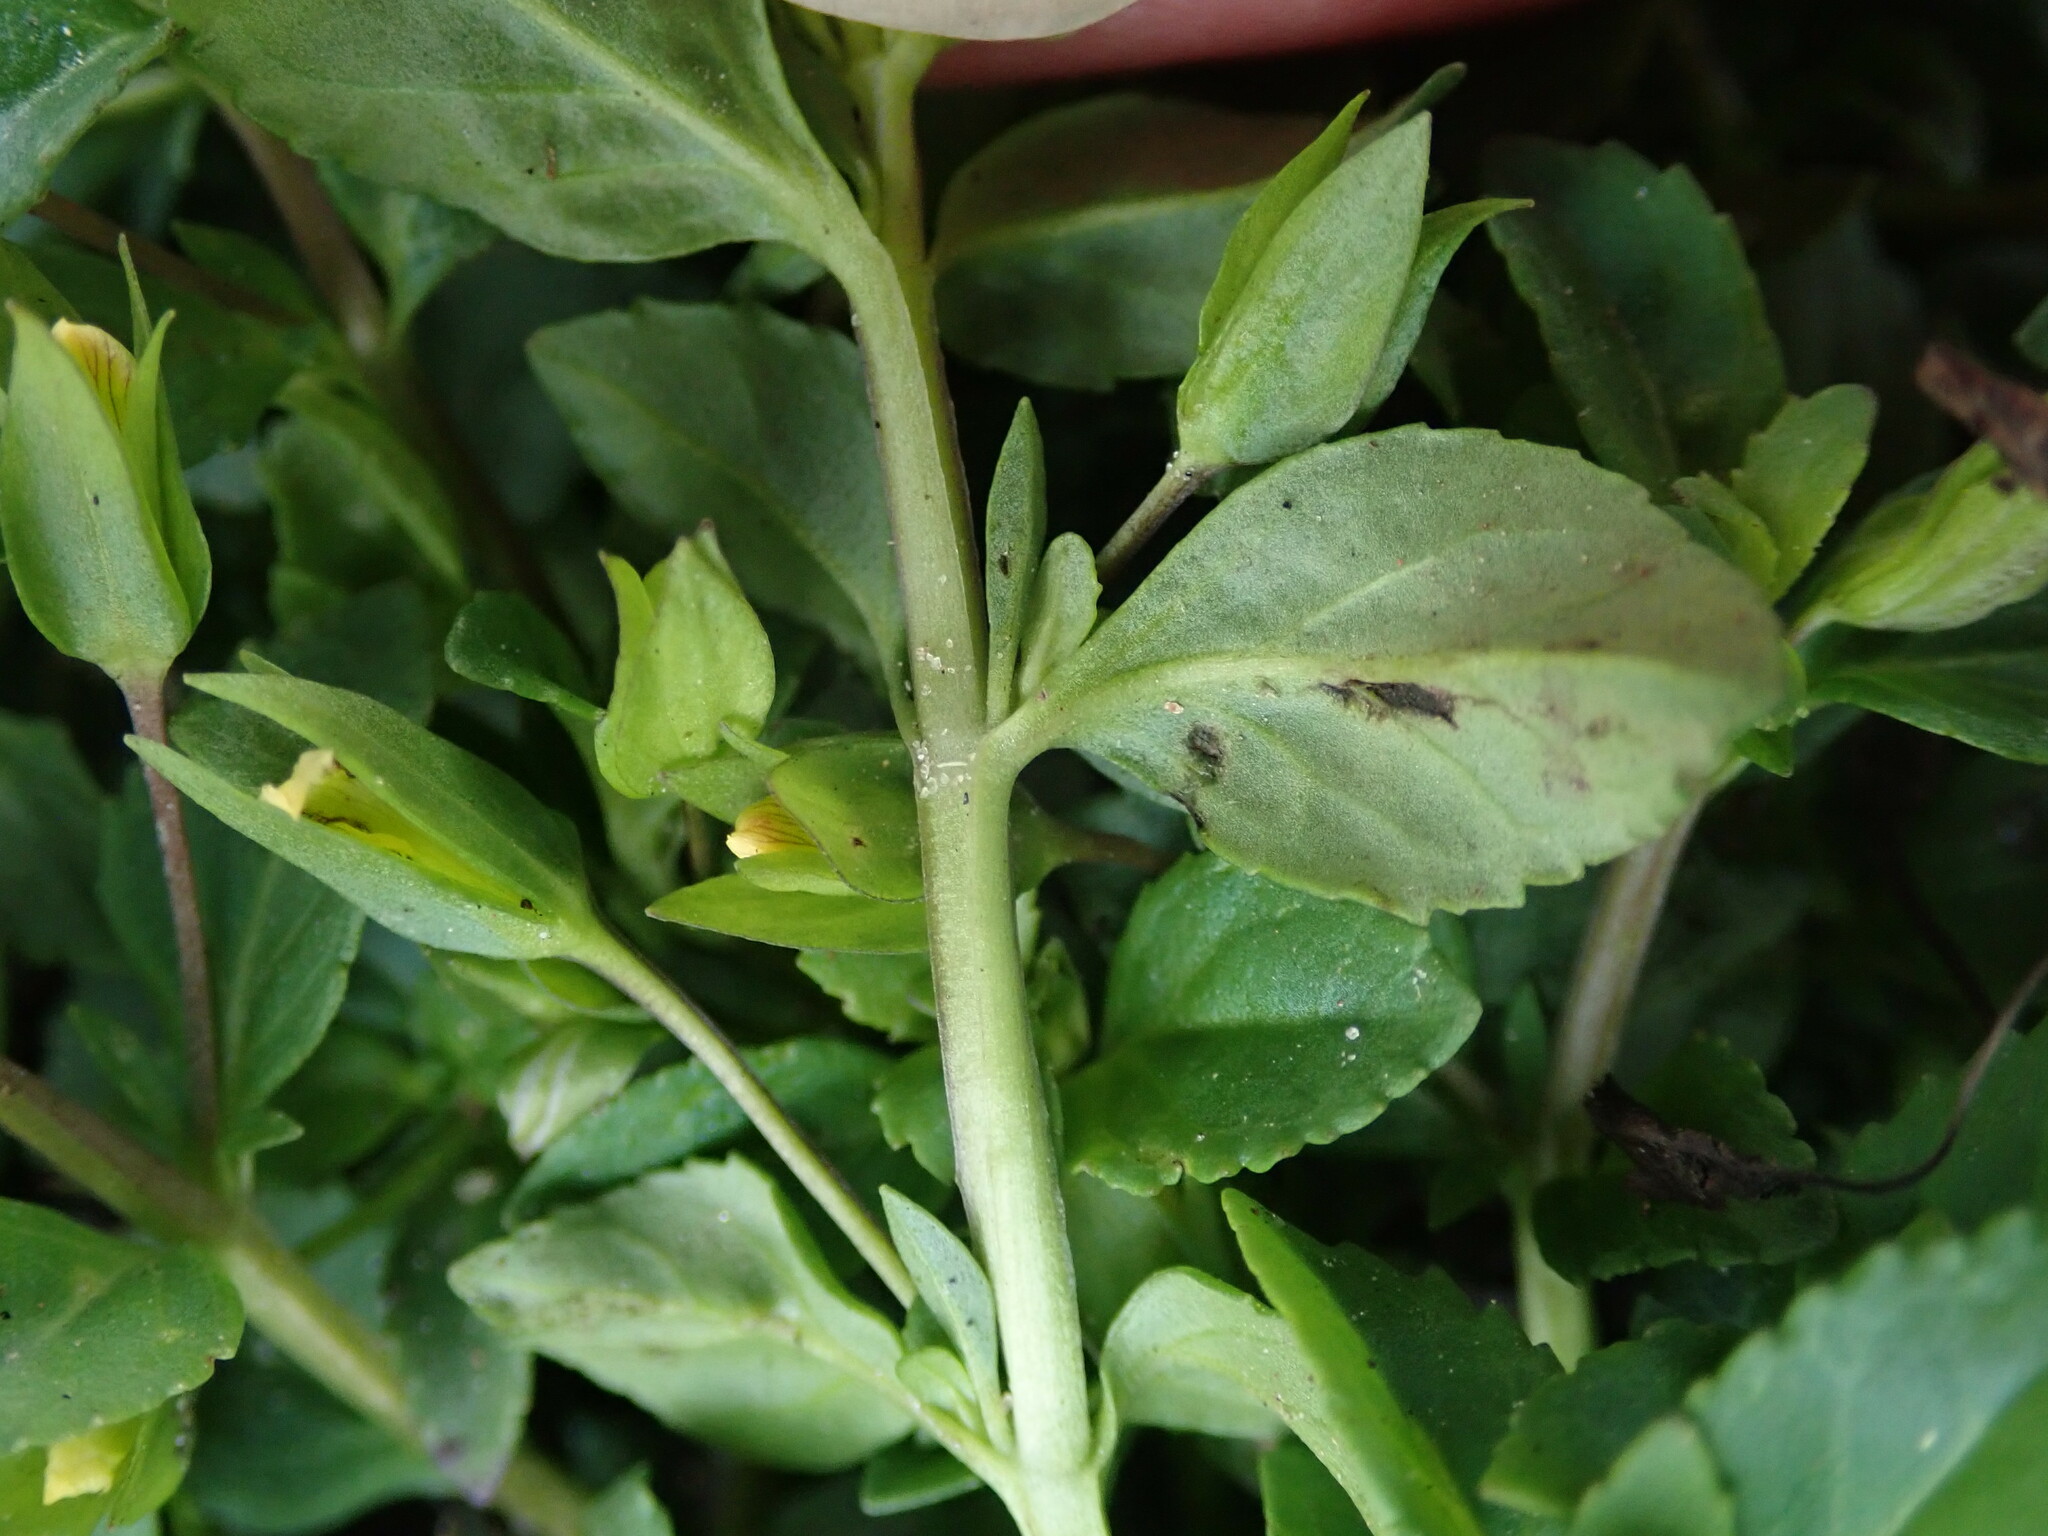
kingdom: Plantae
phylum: Tracheophyta
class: Magnoliopsida
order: Lamiales
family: Plantaginaceae
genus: Mecardonia
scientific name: Mecardonia procumbens
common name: Baby jump-up
